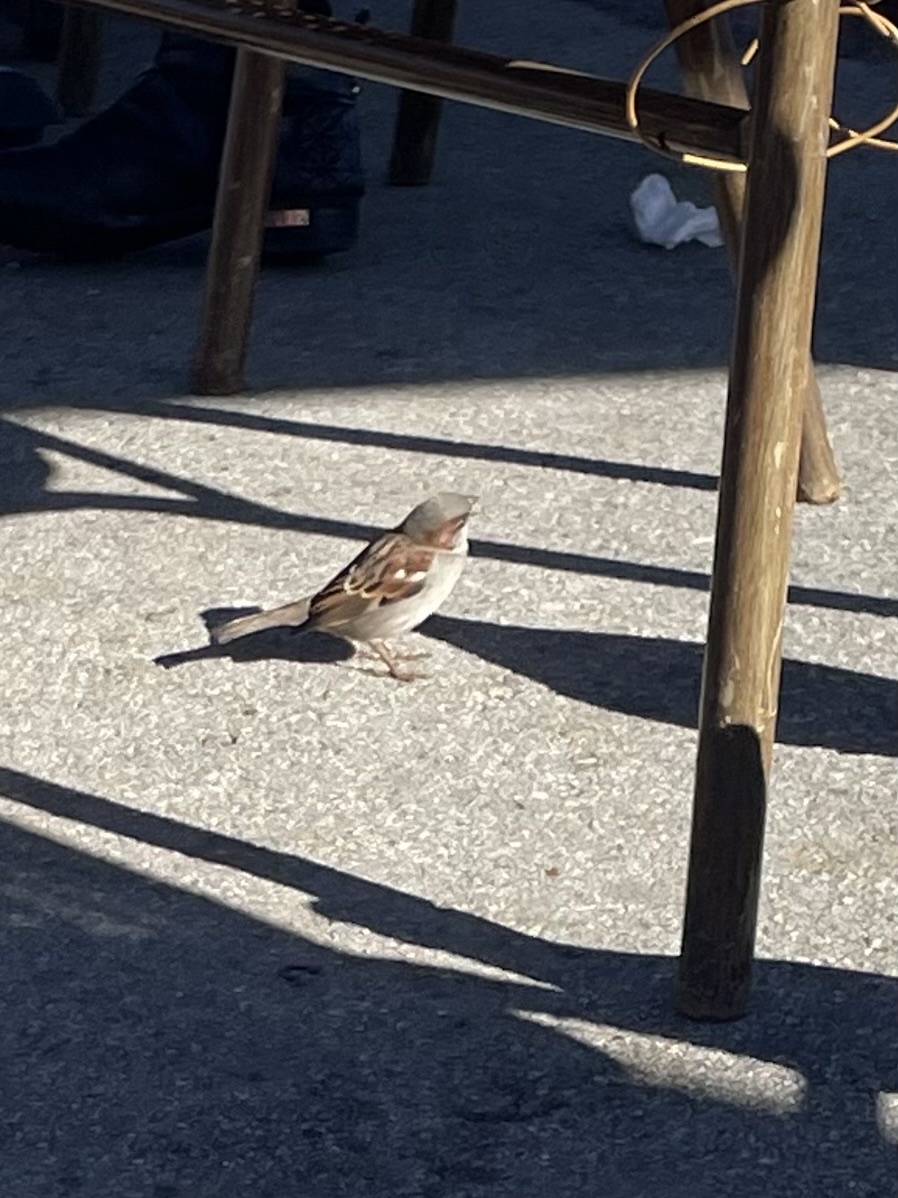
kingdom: Animalia
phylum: Chordata
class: Aves
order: Passeriformes
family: Passeridae
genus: Passer
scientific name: Passer domesticus
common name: House sparrow
